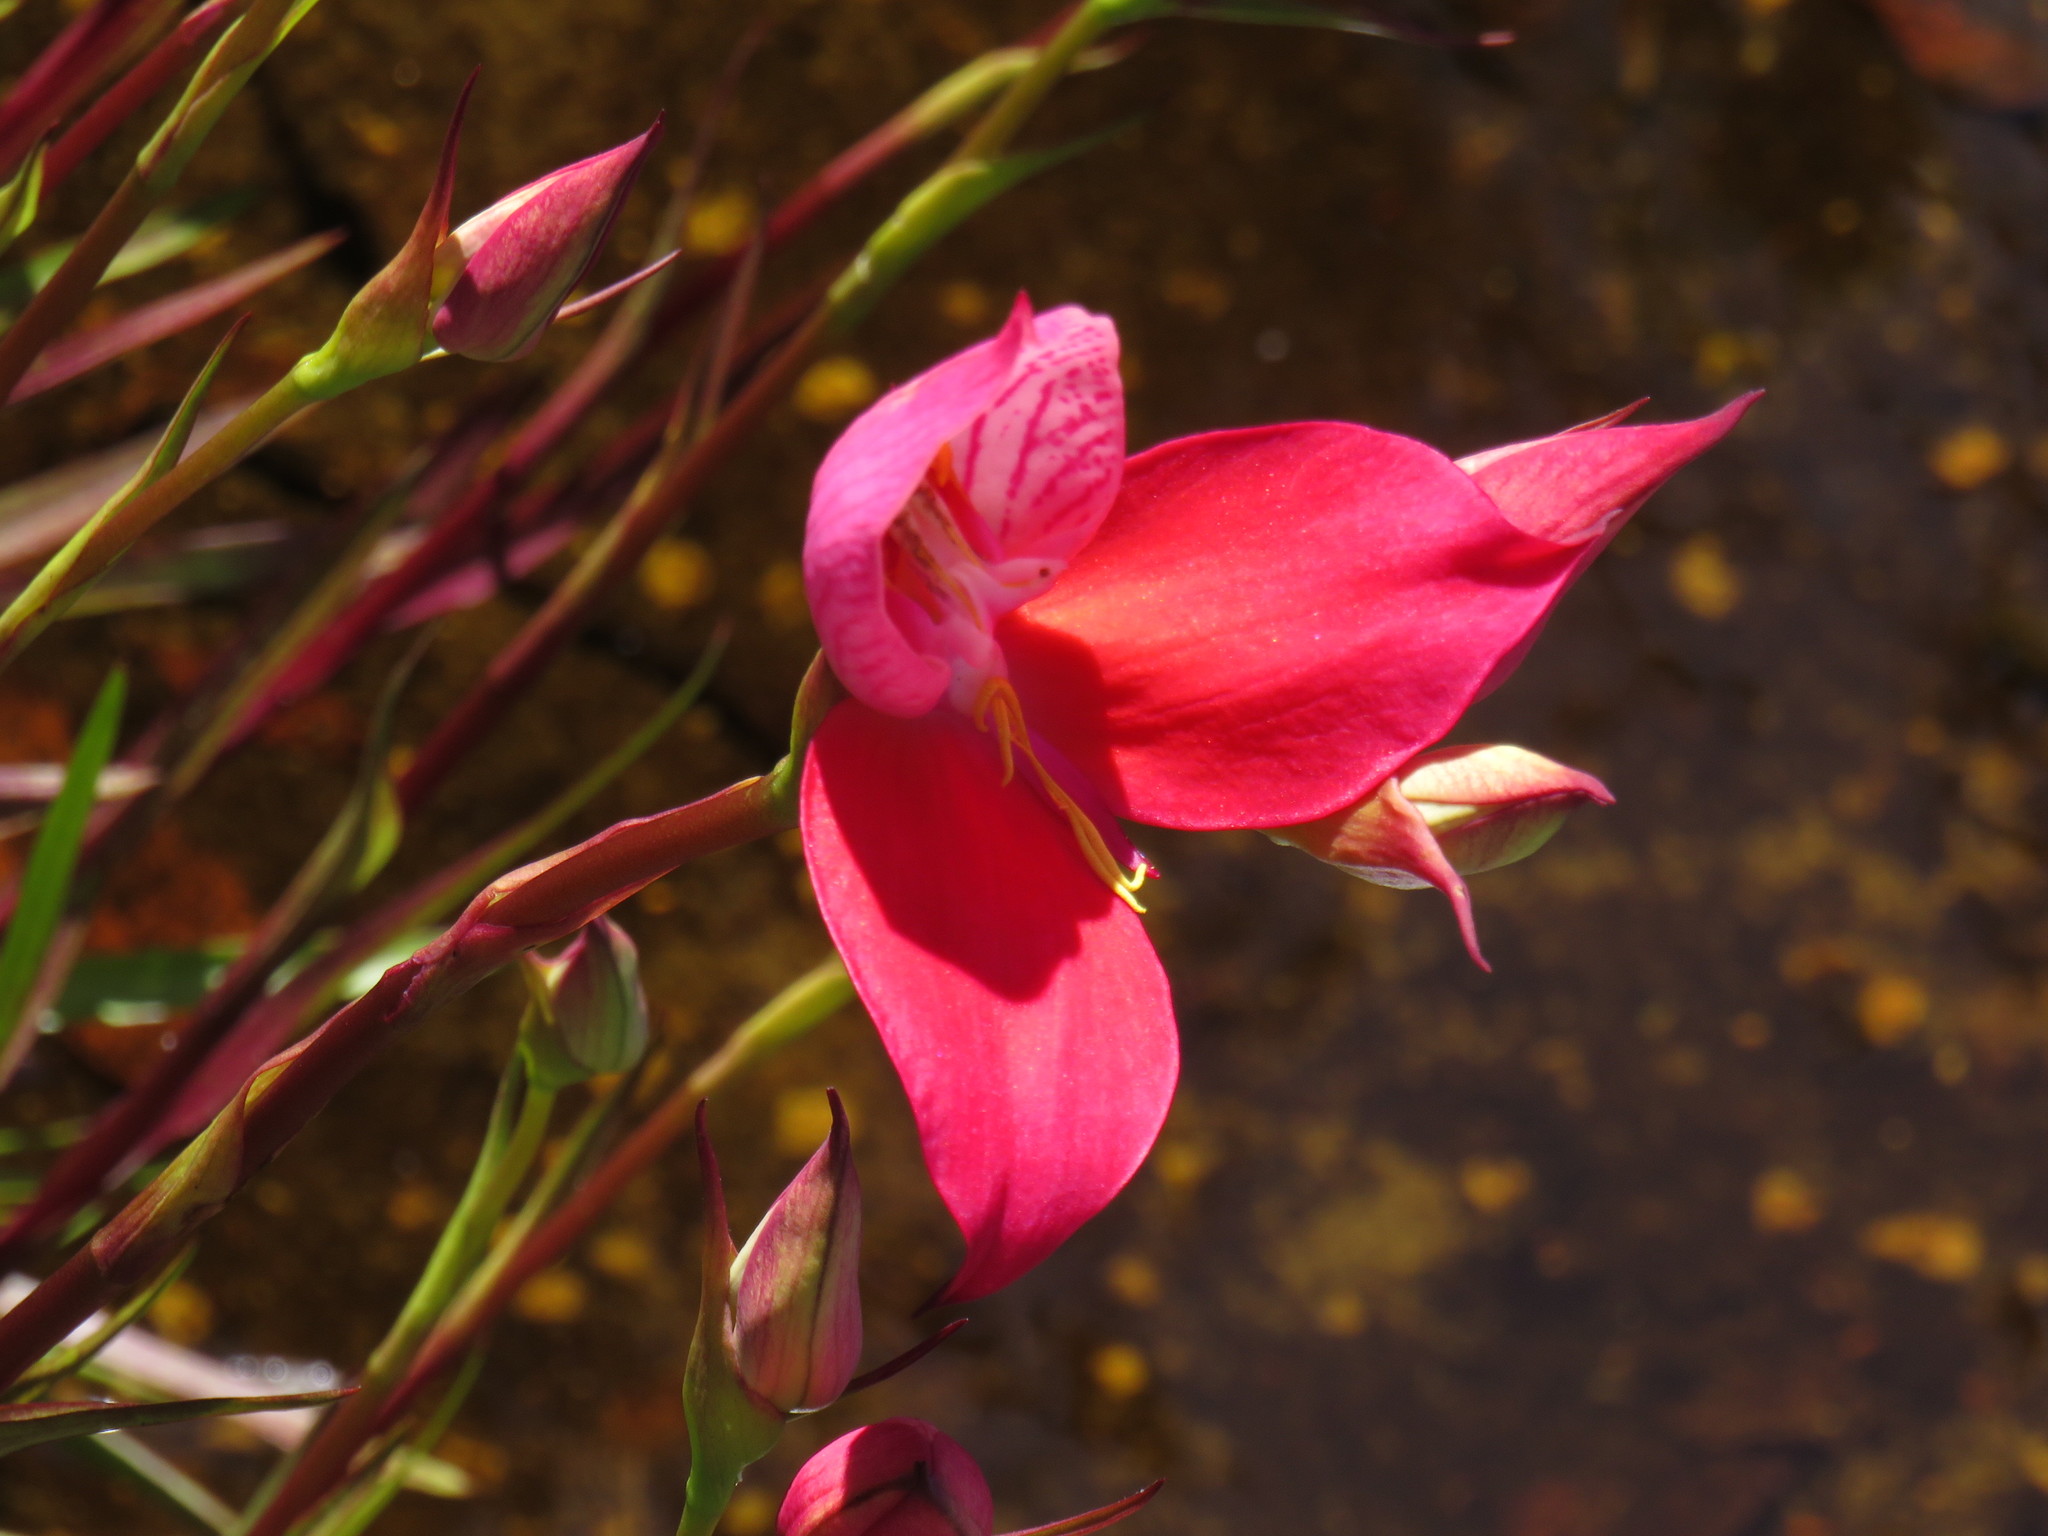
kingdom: Plantae
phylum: Tracheophyta
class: Liliopsida
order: Asparagales
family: Orchidaceae
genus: Disa
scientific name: Disa uniflora
